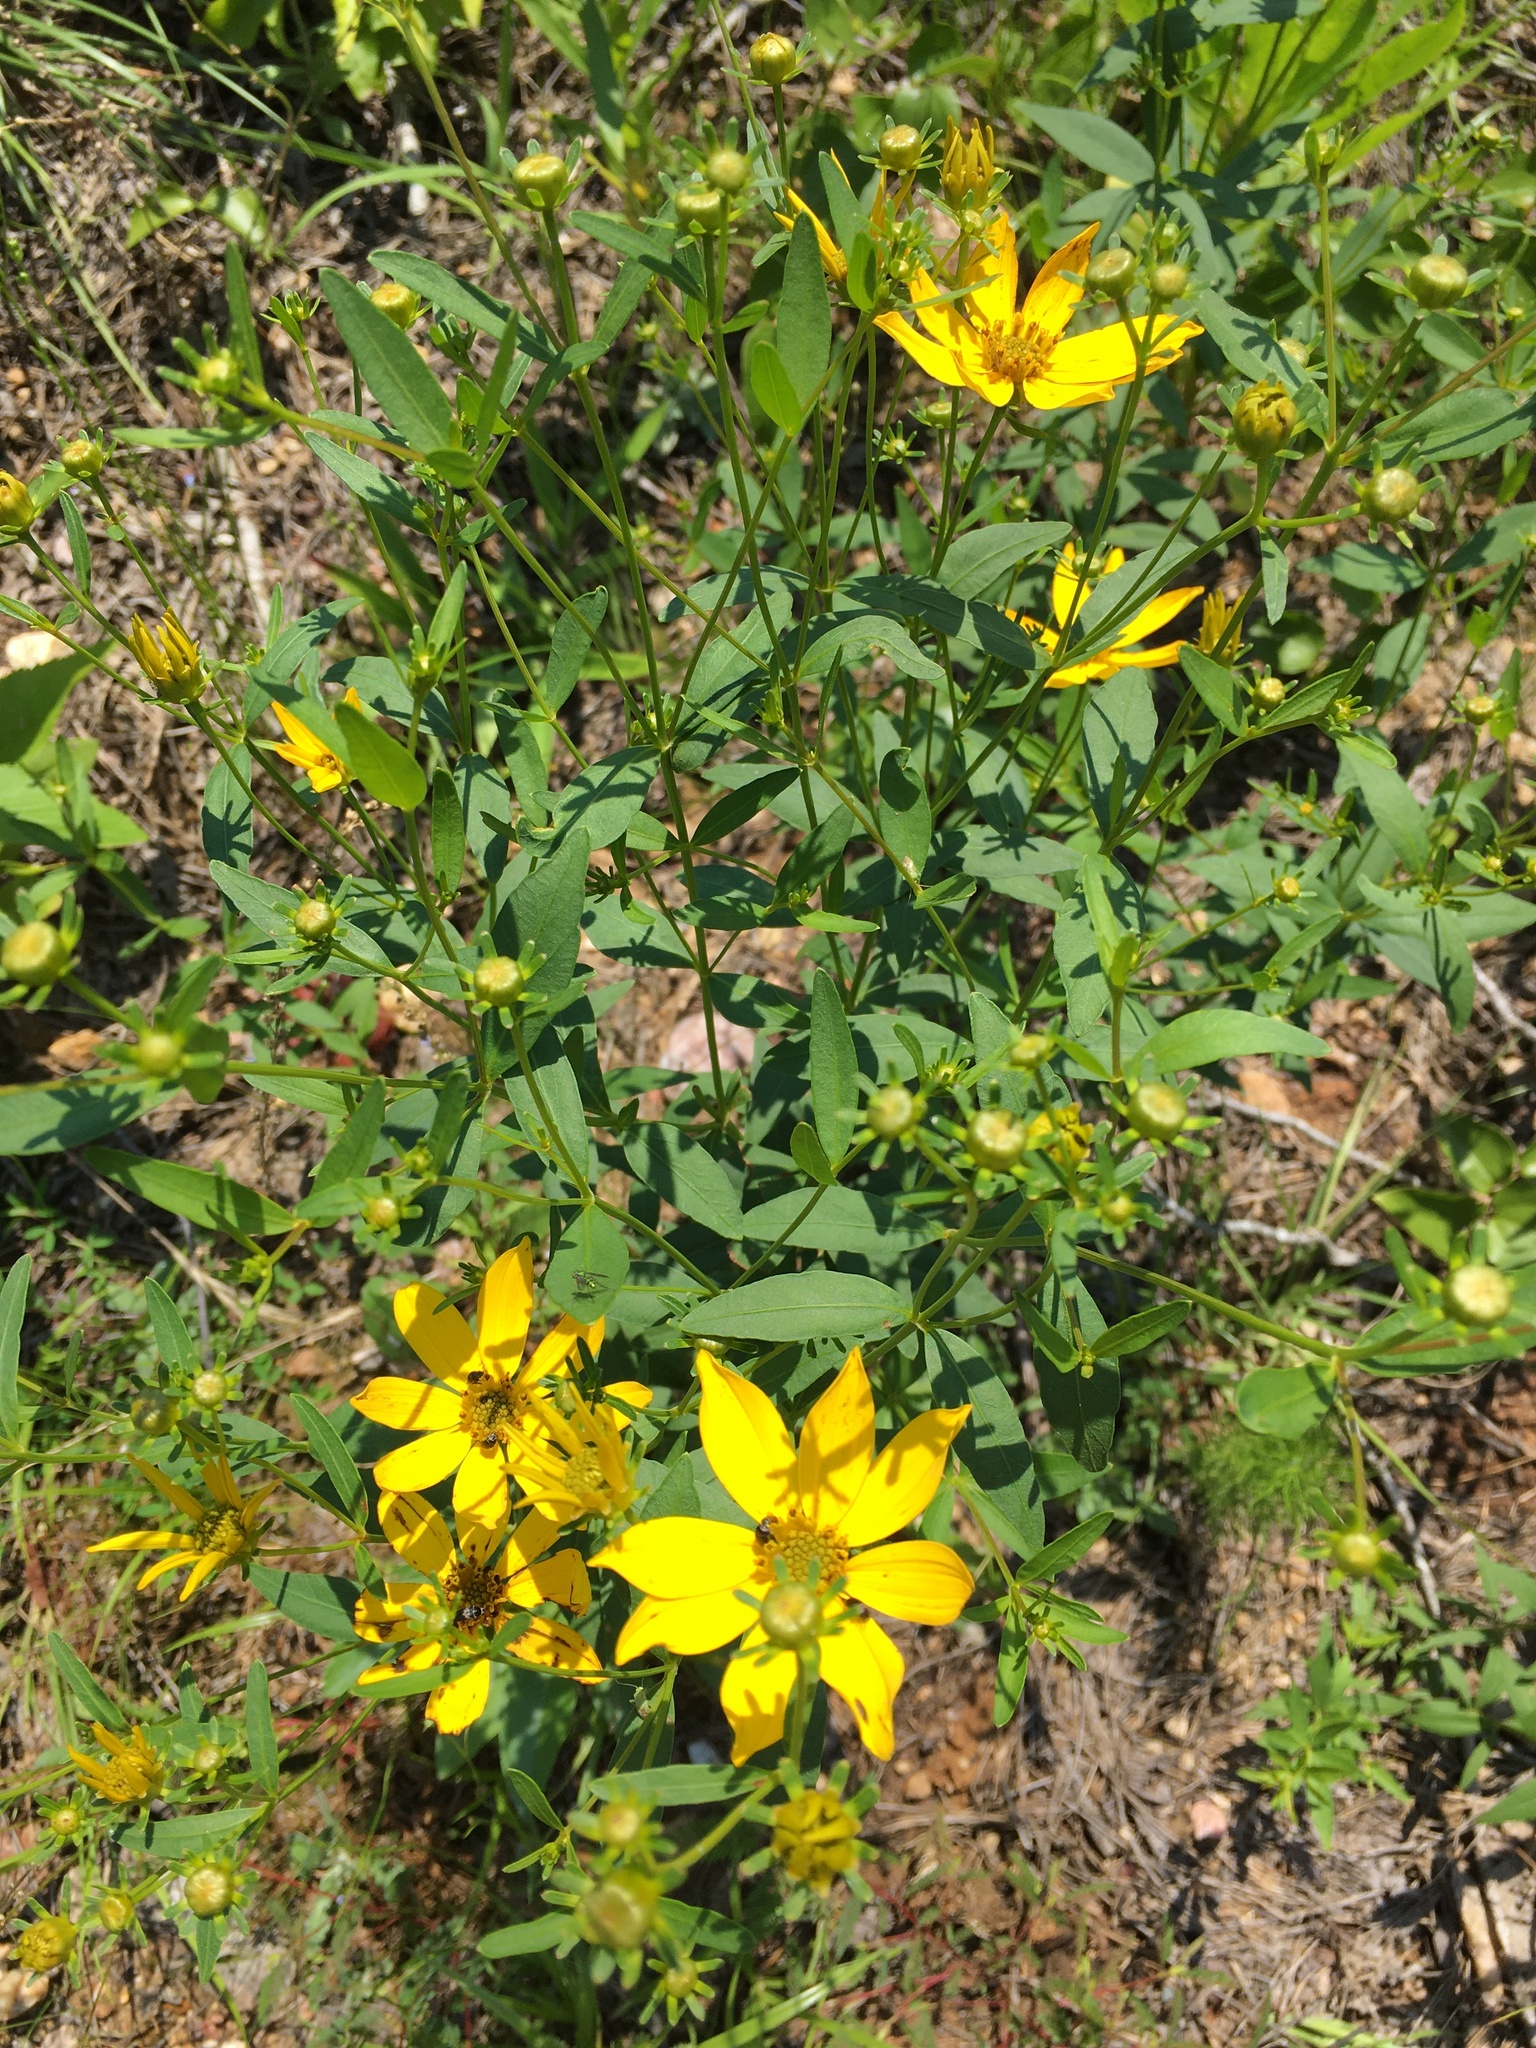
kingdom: Plantae
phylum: Tracheophyta
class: Magnoliopsida
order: Asterales
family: Asteraceae
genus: Coreopsis
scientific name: Coreopsis major
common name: Forest tickseed
